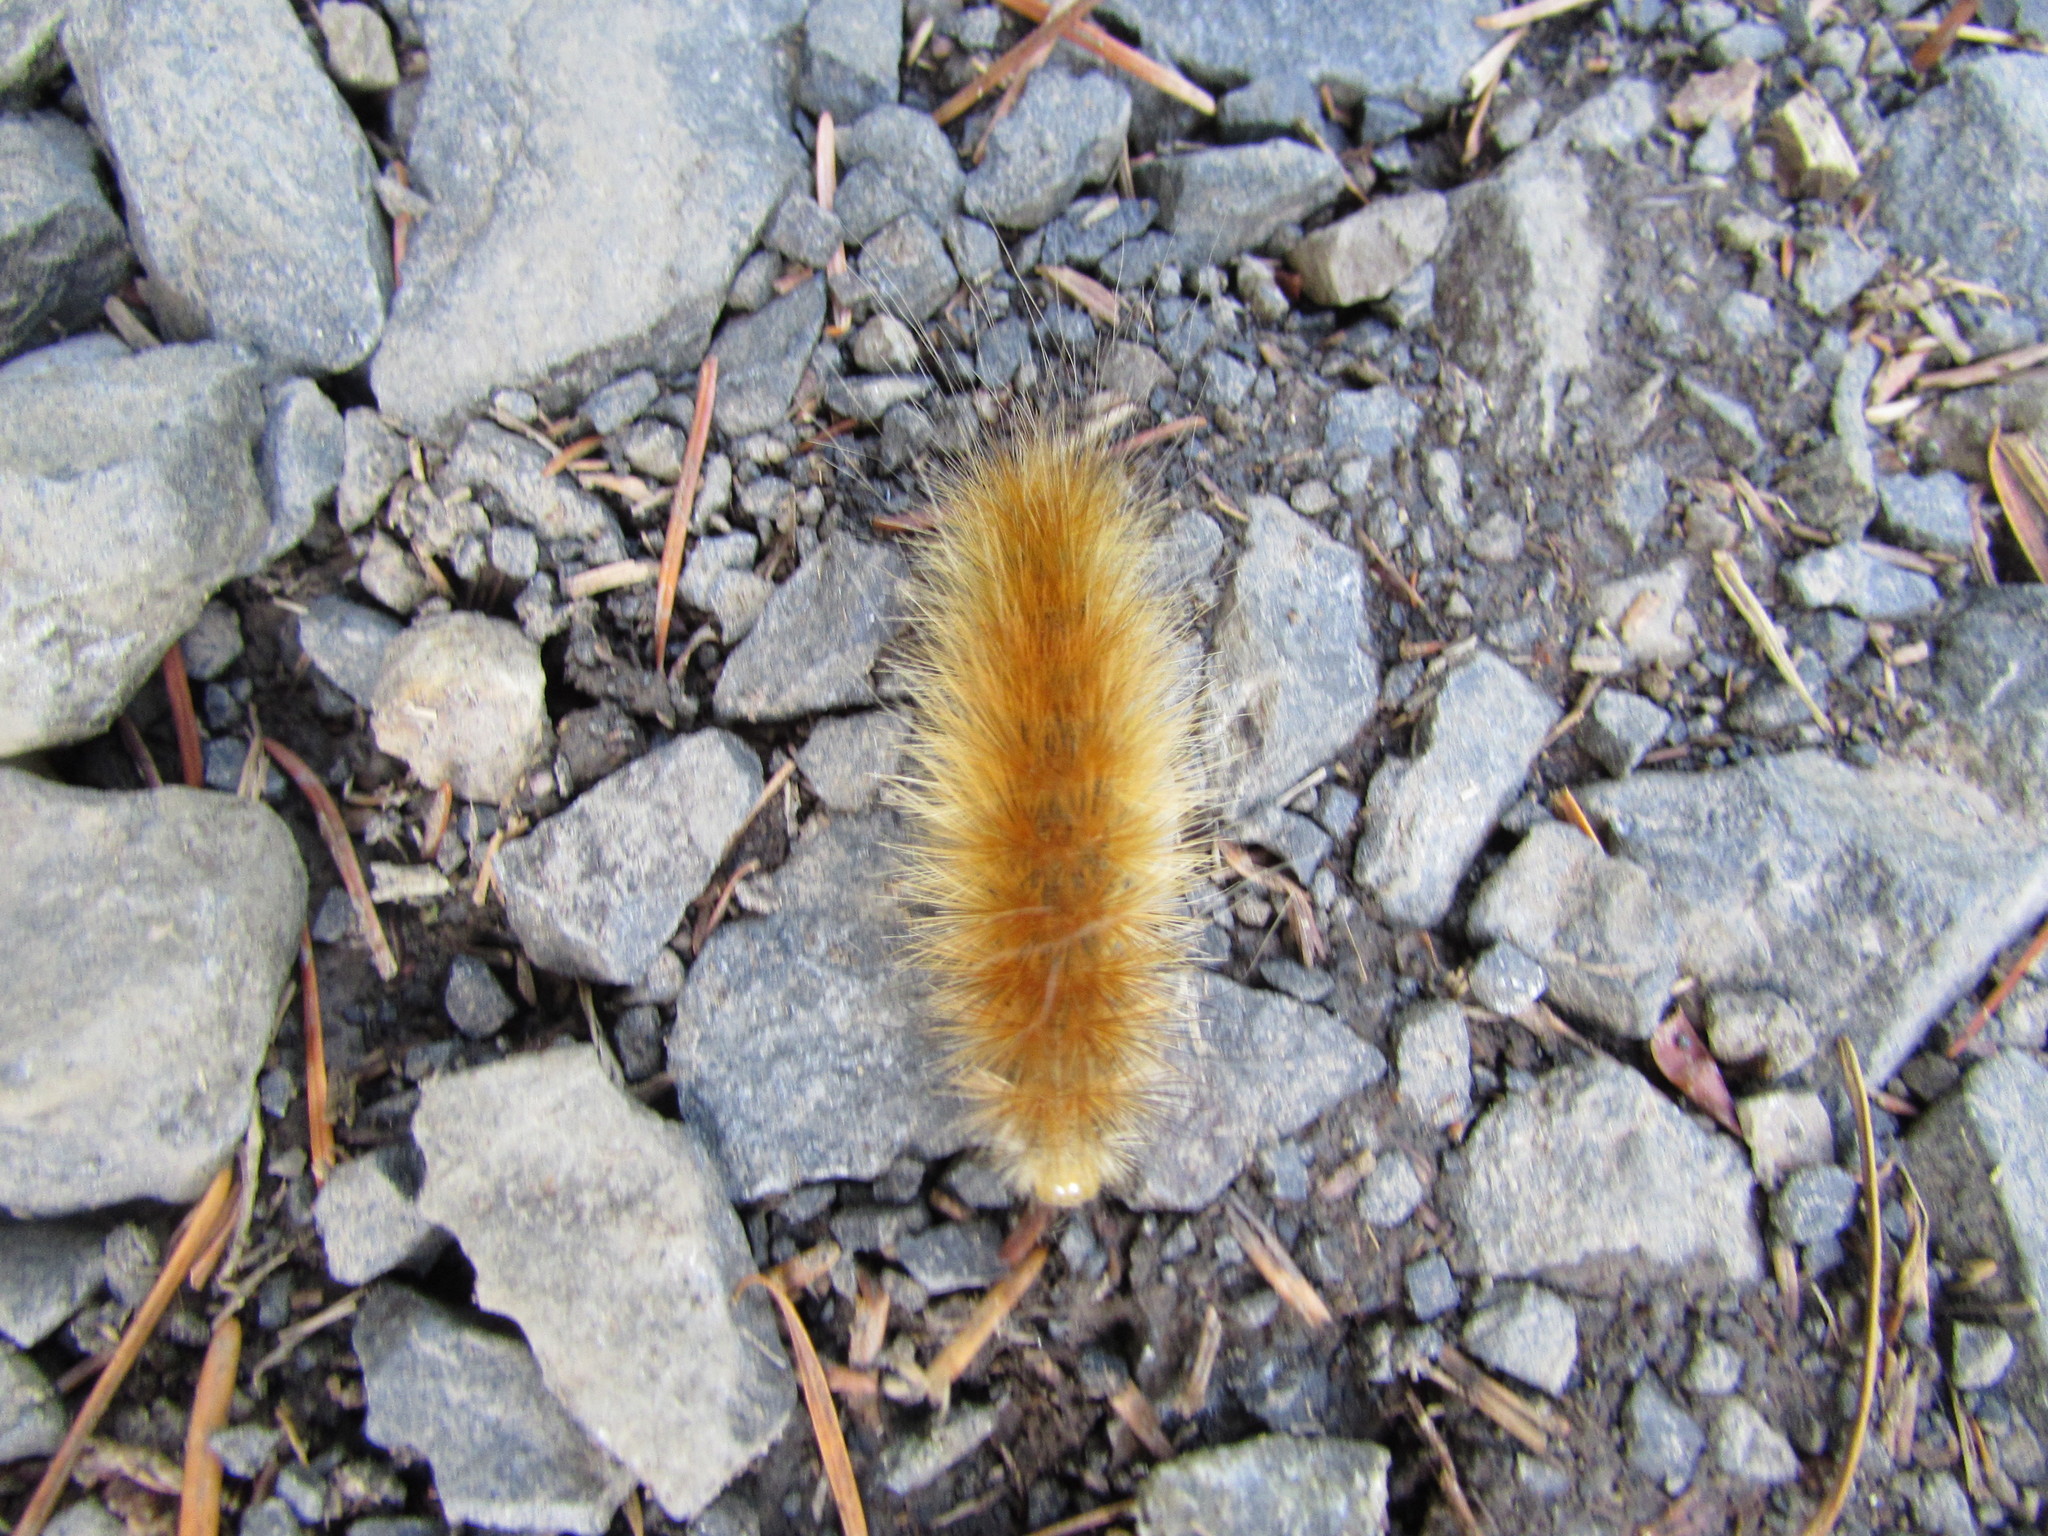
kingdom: Animalia
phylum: Arthropoda
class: Insecta
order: Lepidoptera
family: Erebidae
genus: Spilosoma
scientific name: Spilosoma virginica
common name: Virginia tiger moth
